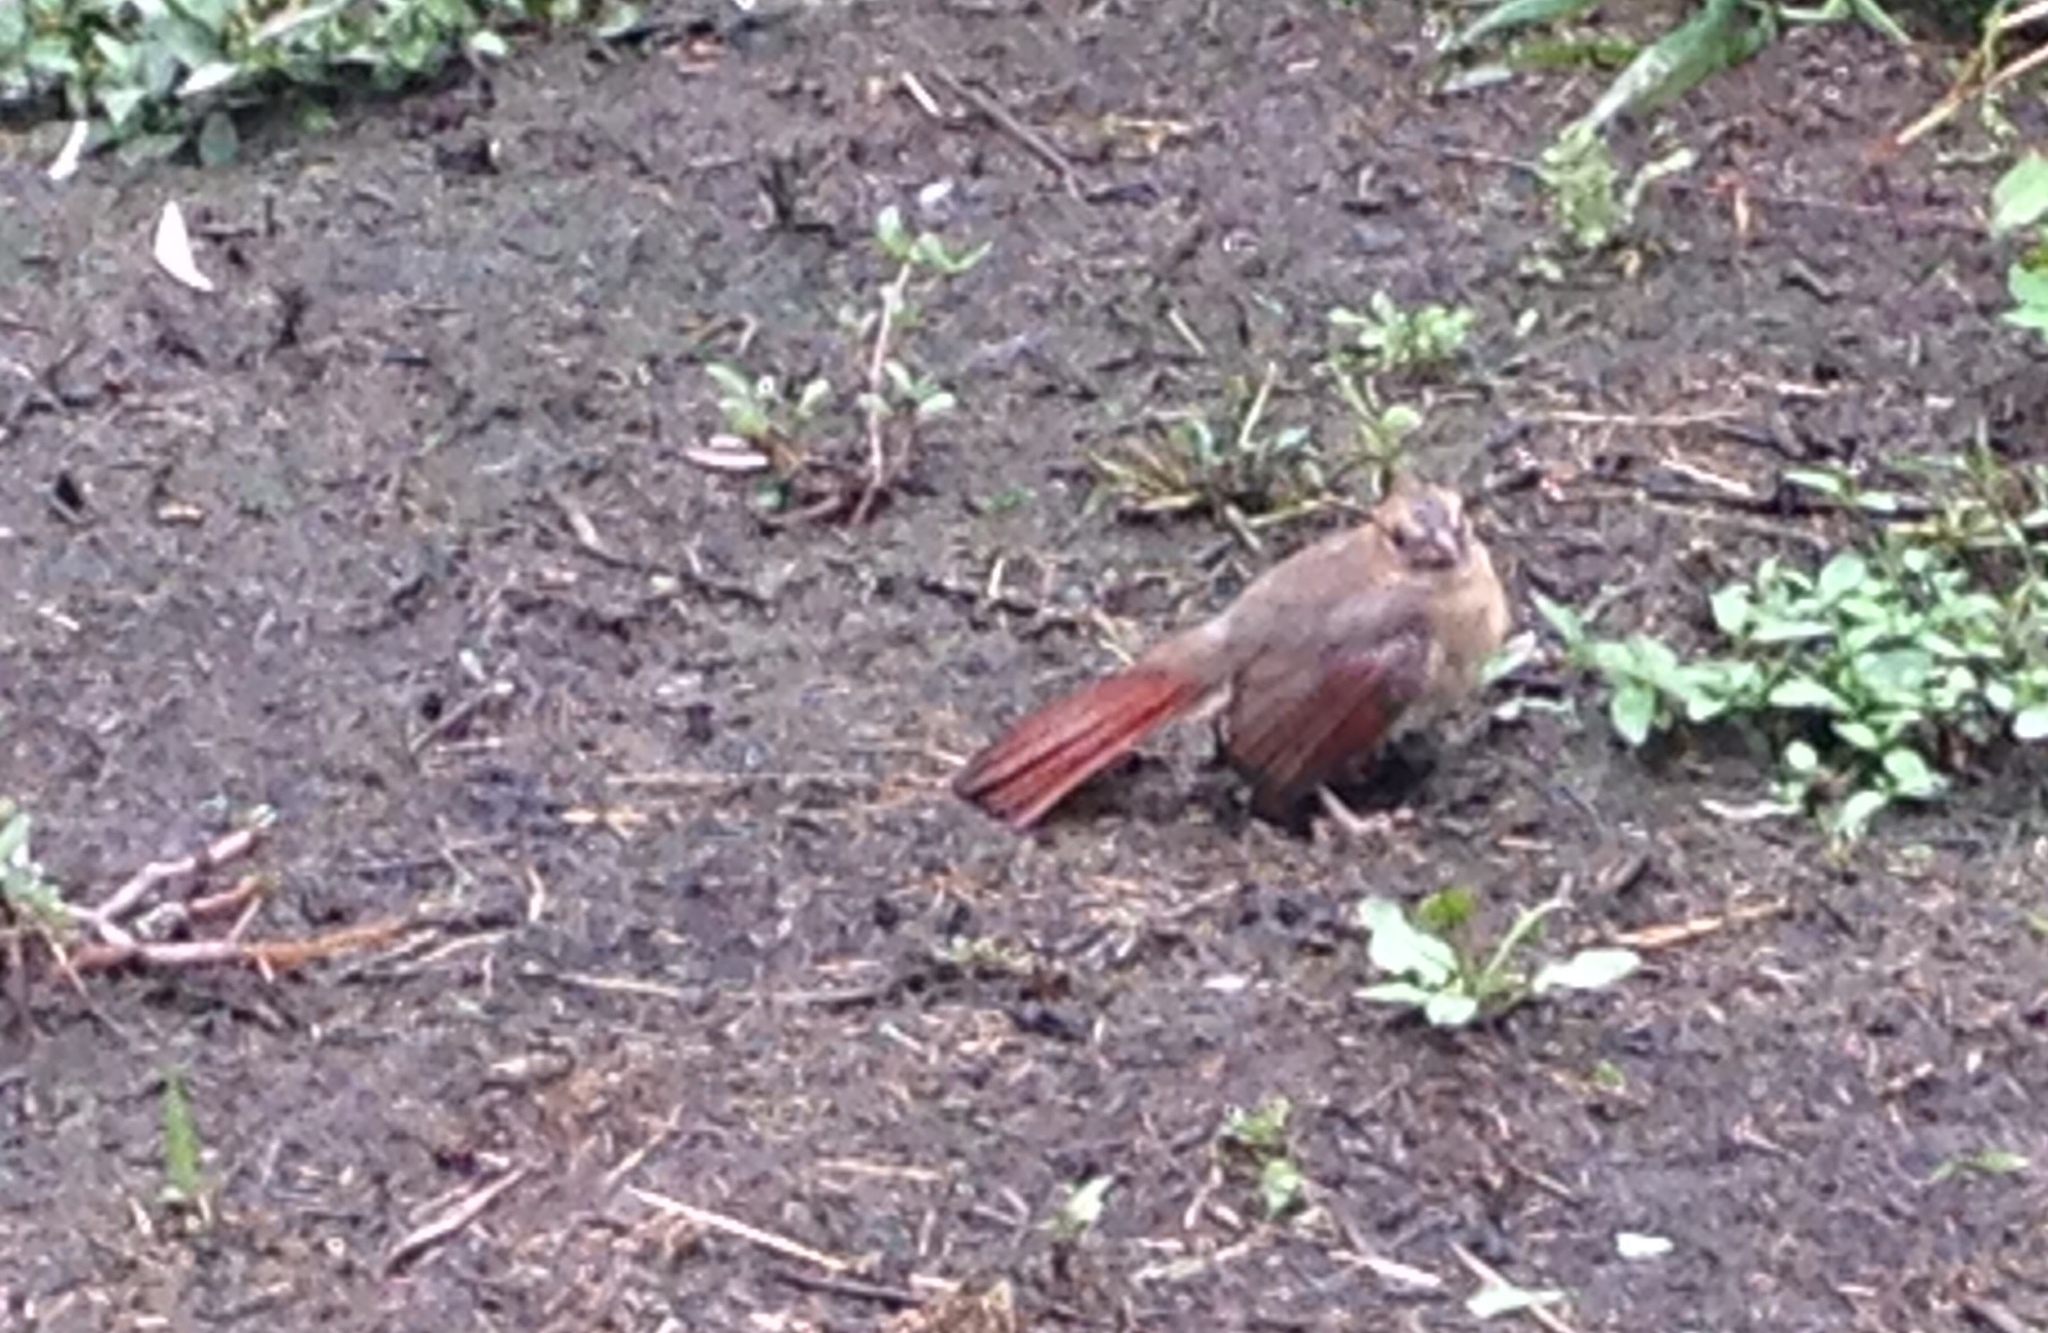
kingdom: Animalia
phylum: Chordata
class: Aves
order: Passeriformes
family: Cardinalidae
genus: Cardinalis
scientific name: Cardinalis cardinalis
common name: Northern cardinal
